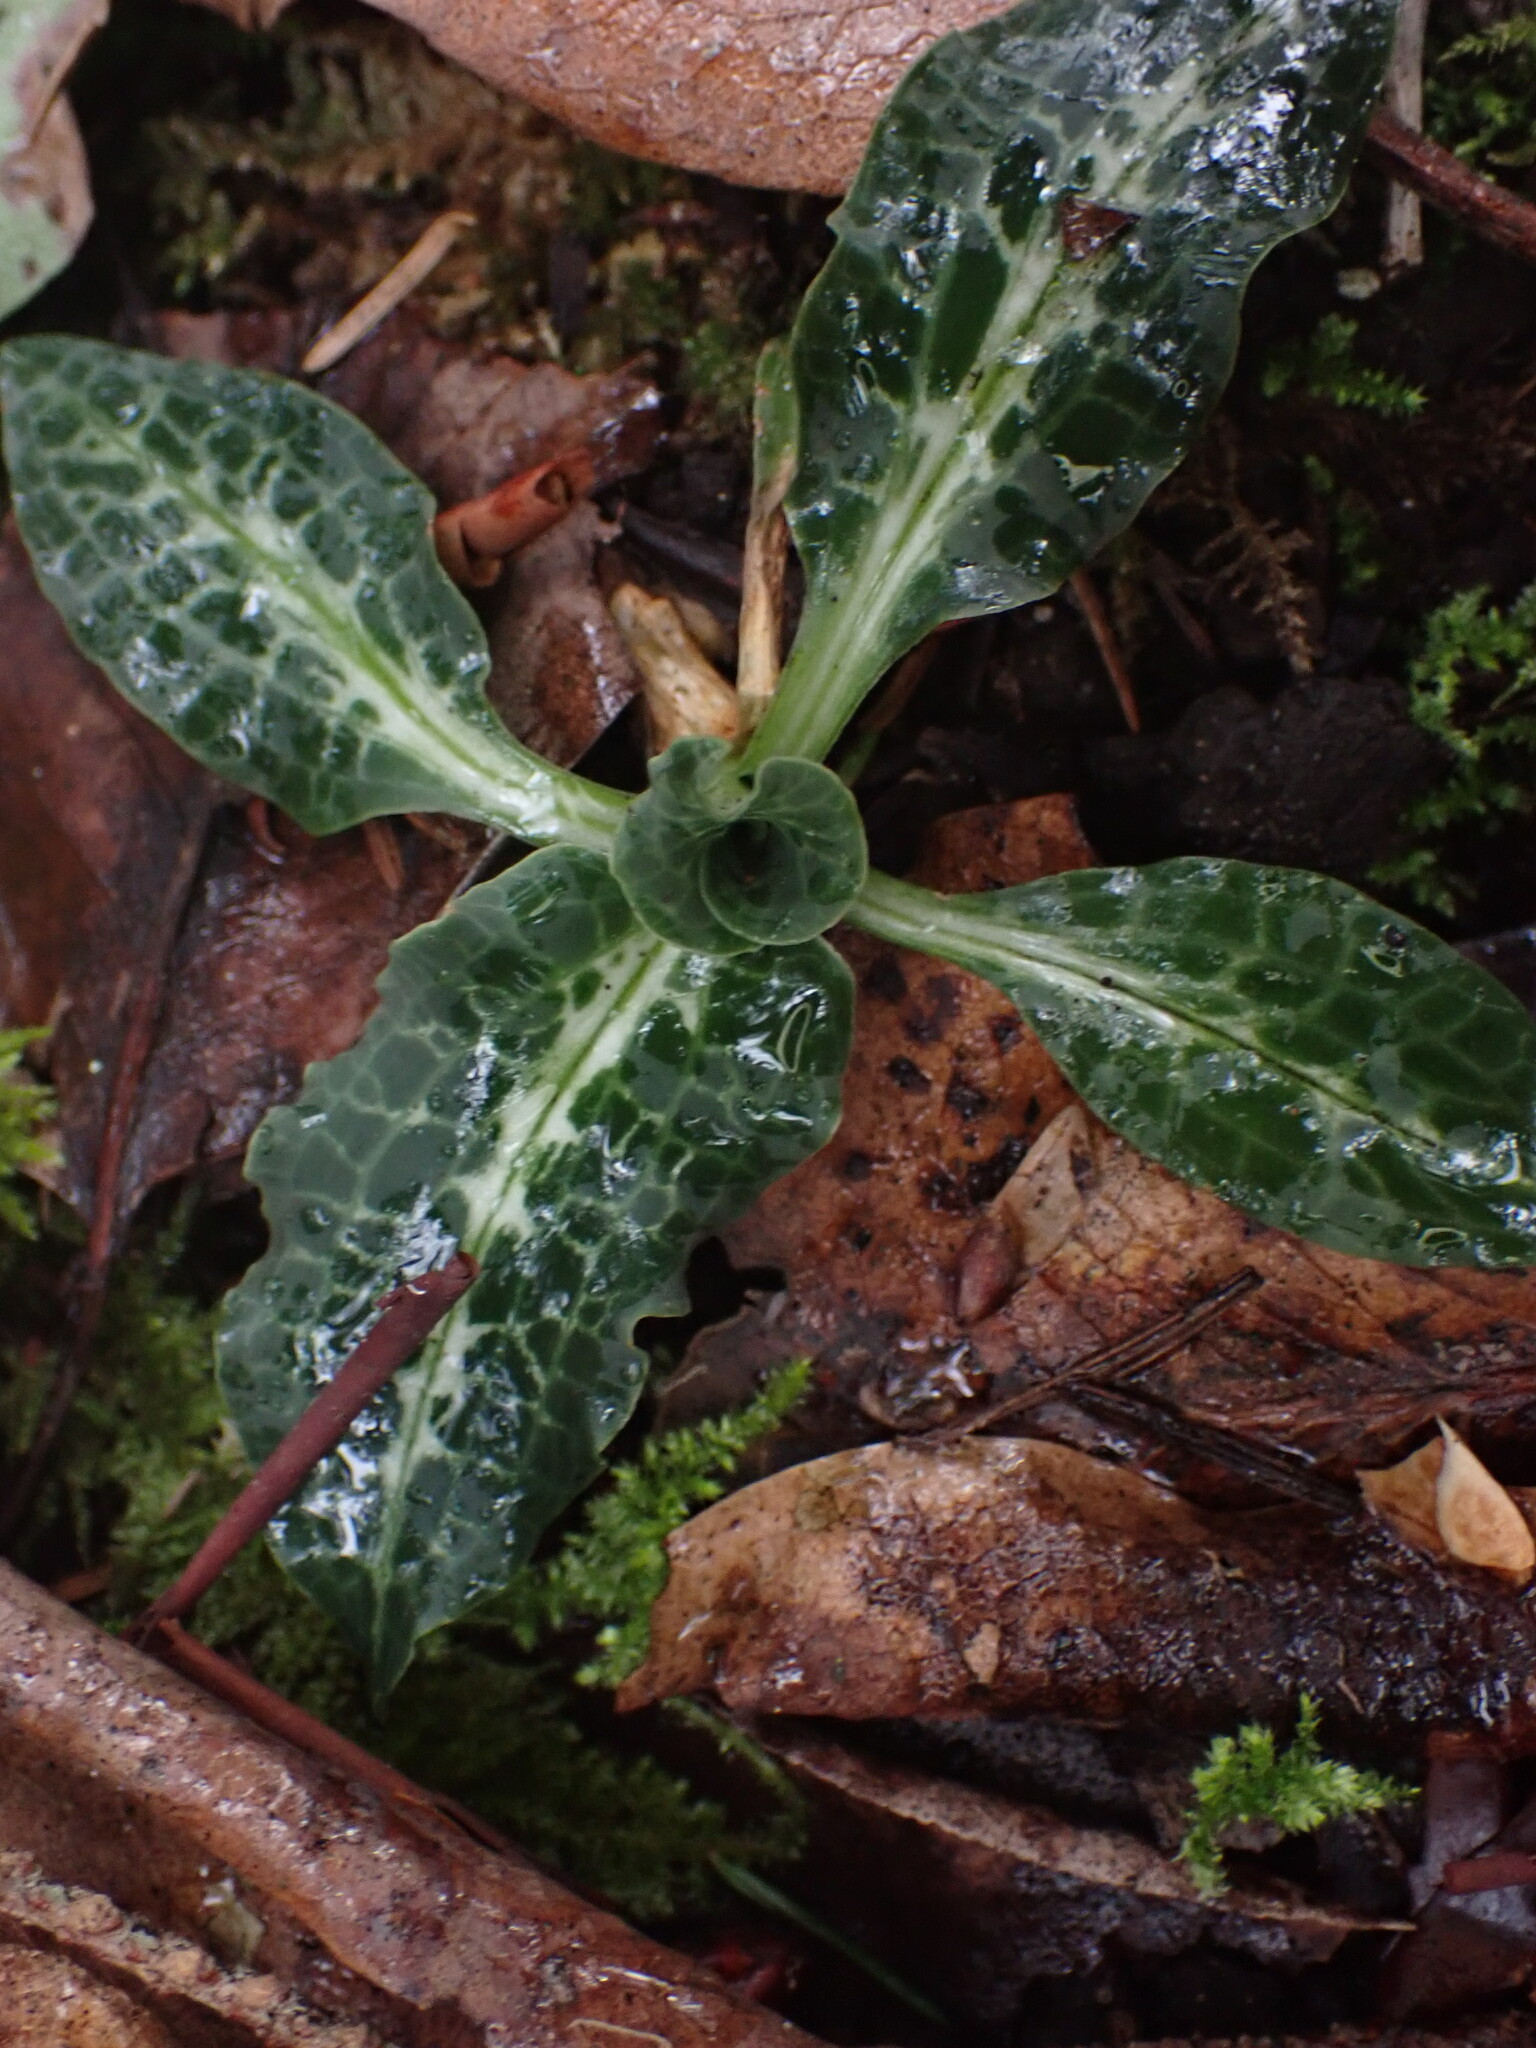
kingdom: Plantae
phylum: Tracheophyta
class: Liliopsida
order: Asparagales
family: Orchidaceae
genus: Goodyera
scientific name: Goodyera oblongifolia
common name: Giant rattlesnake-plantain
